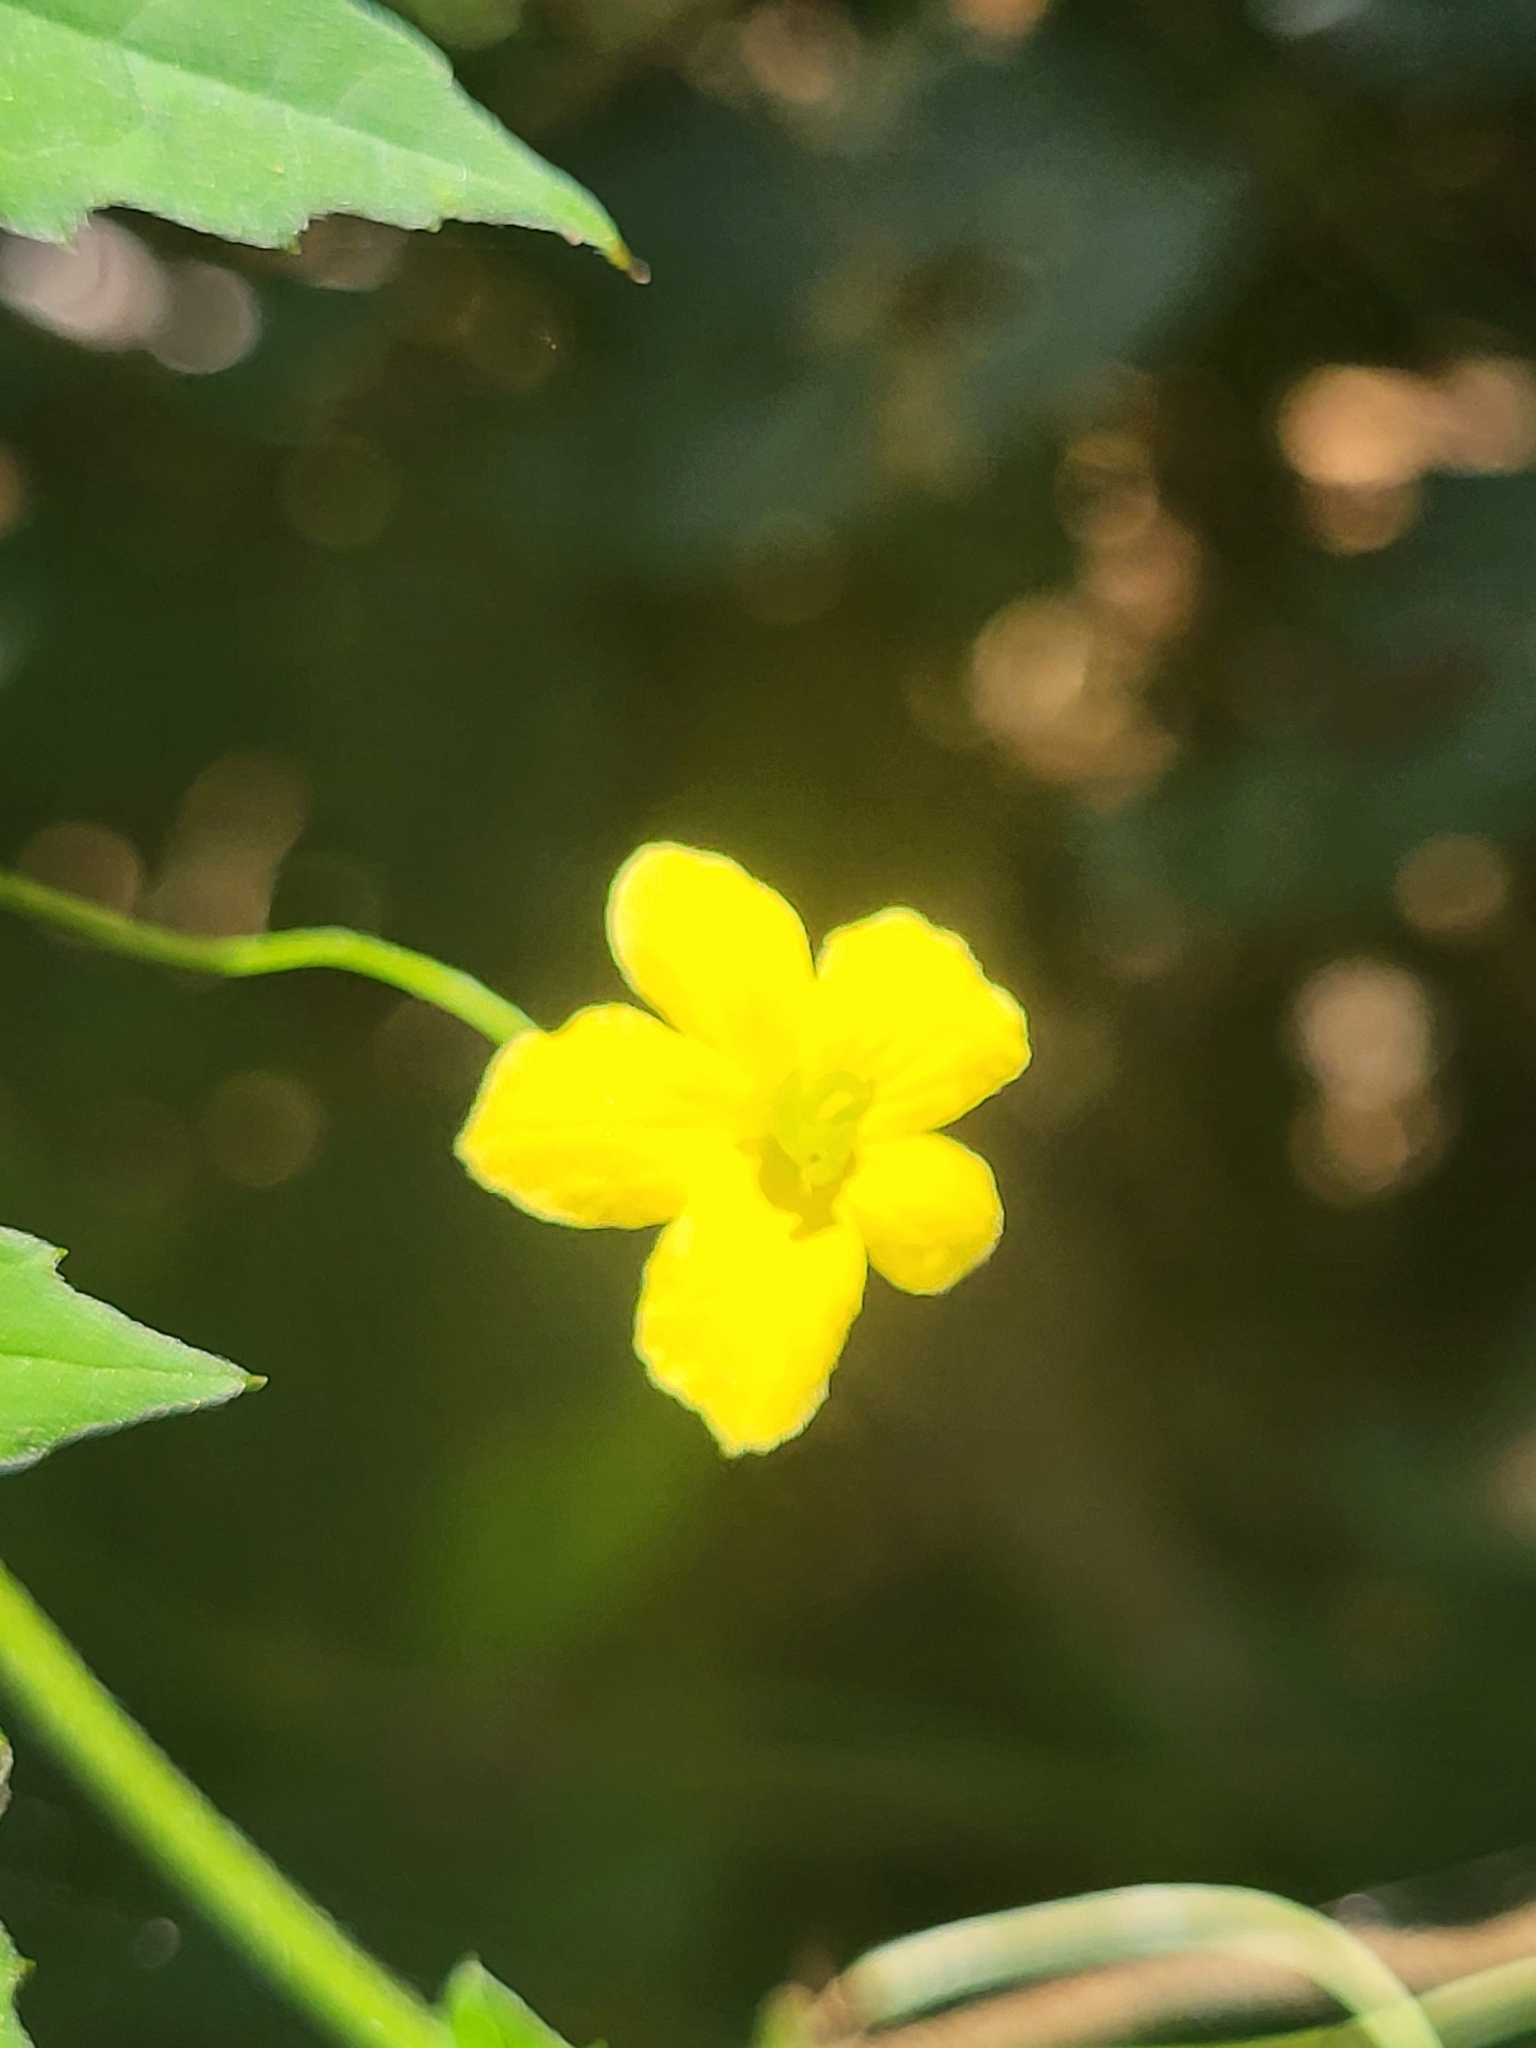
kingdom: Plantae
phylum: Tracheophyta
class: Magnoliopsida
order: Cucurbitales
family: Cucurbitaceae
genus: Momordica
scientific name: Momordica charantia
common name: Balsampear
